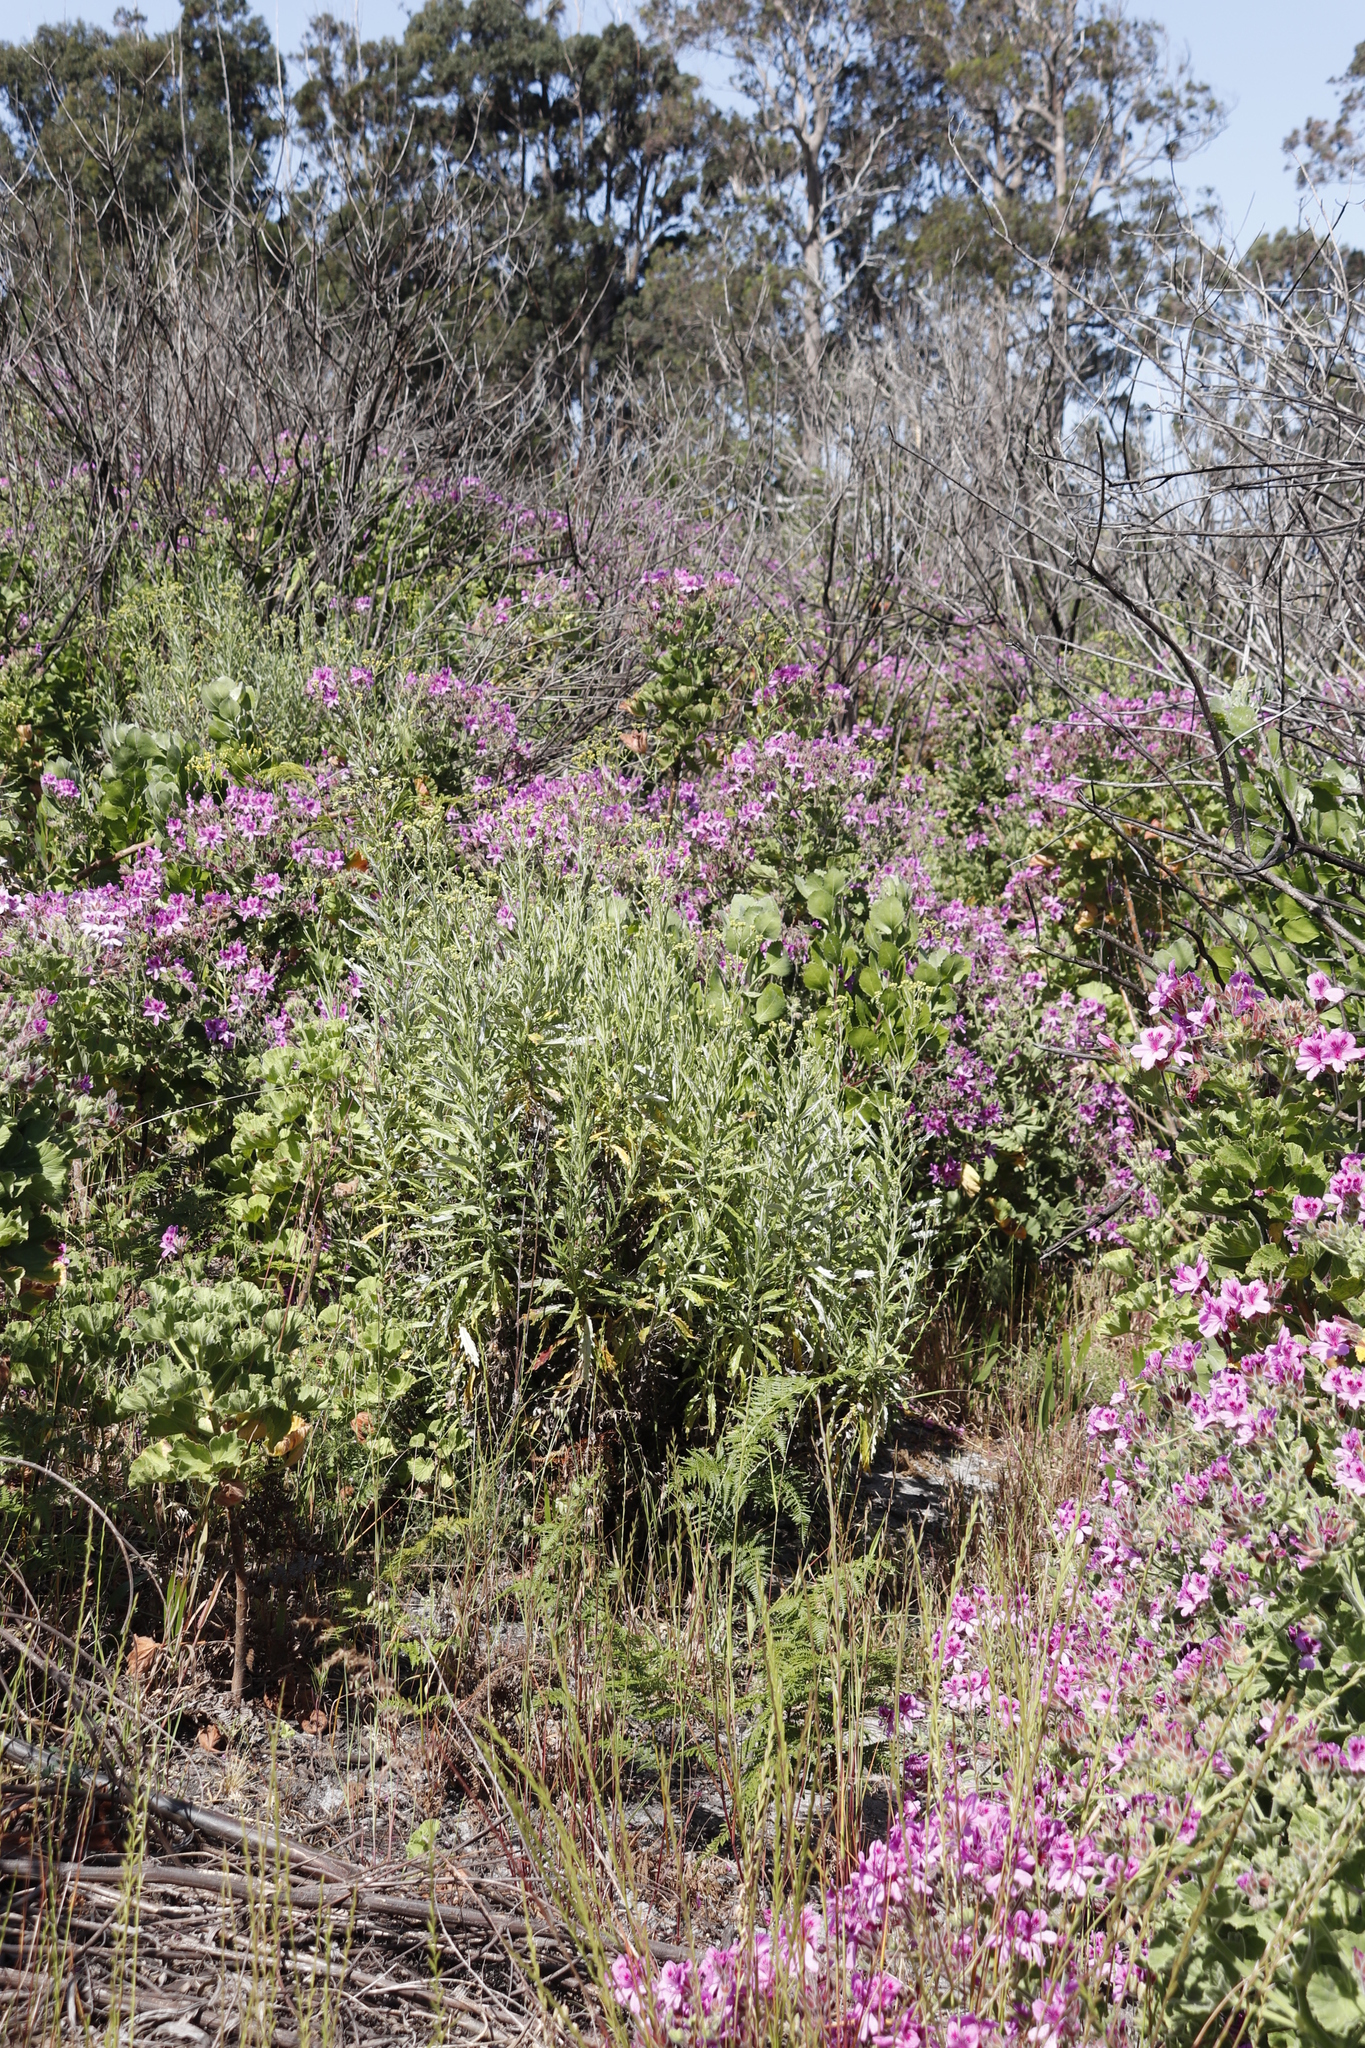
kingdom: Plantae
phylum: Tracheophyta
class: Magnoliopsida
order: Asterales
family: Asteraceae
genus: Senecio
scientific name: Senecio pterophorus
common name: Shoddy ragwort
